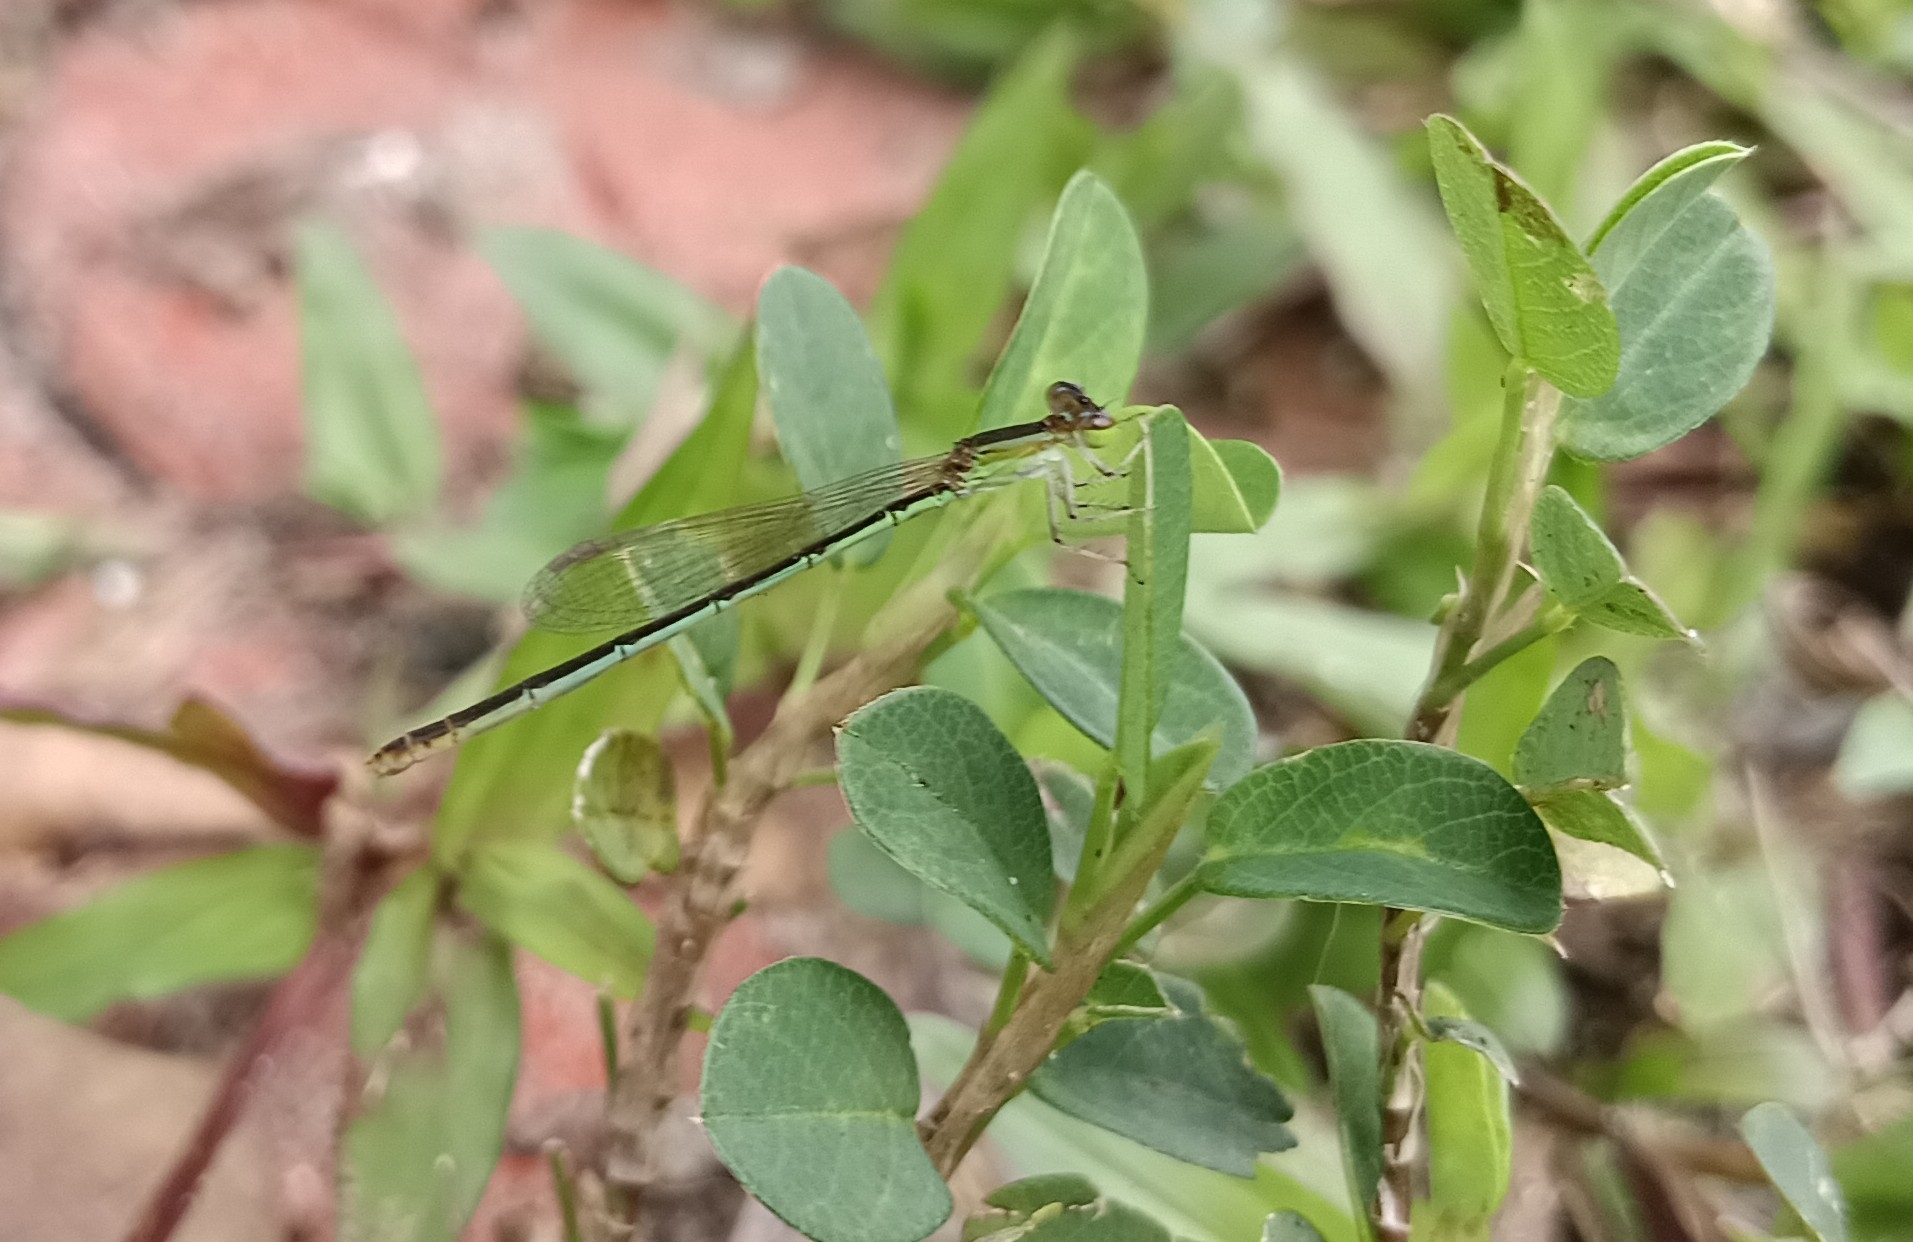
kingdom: Animalia
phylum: Arthropoda
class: Insecta
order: Odonata
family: Coenagrionidae
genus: Agriocnemis
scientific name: Agriocnemis pygmaea
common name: Pygmy wisp
